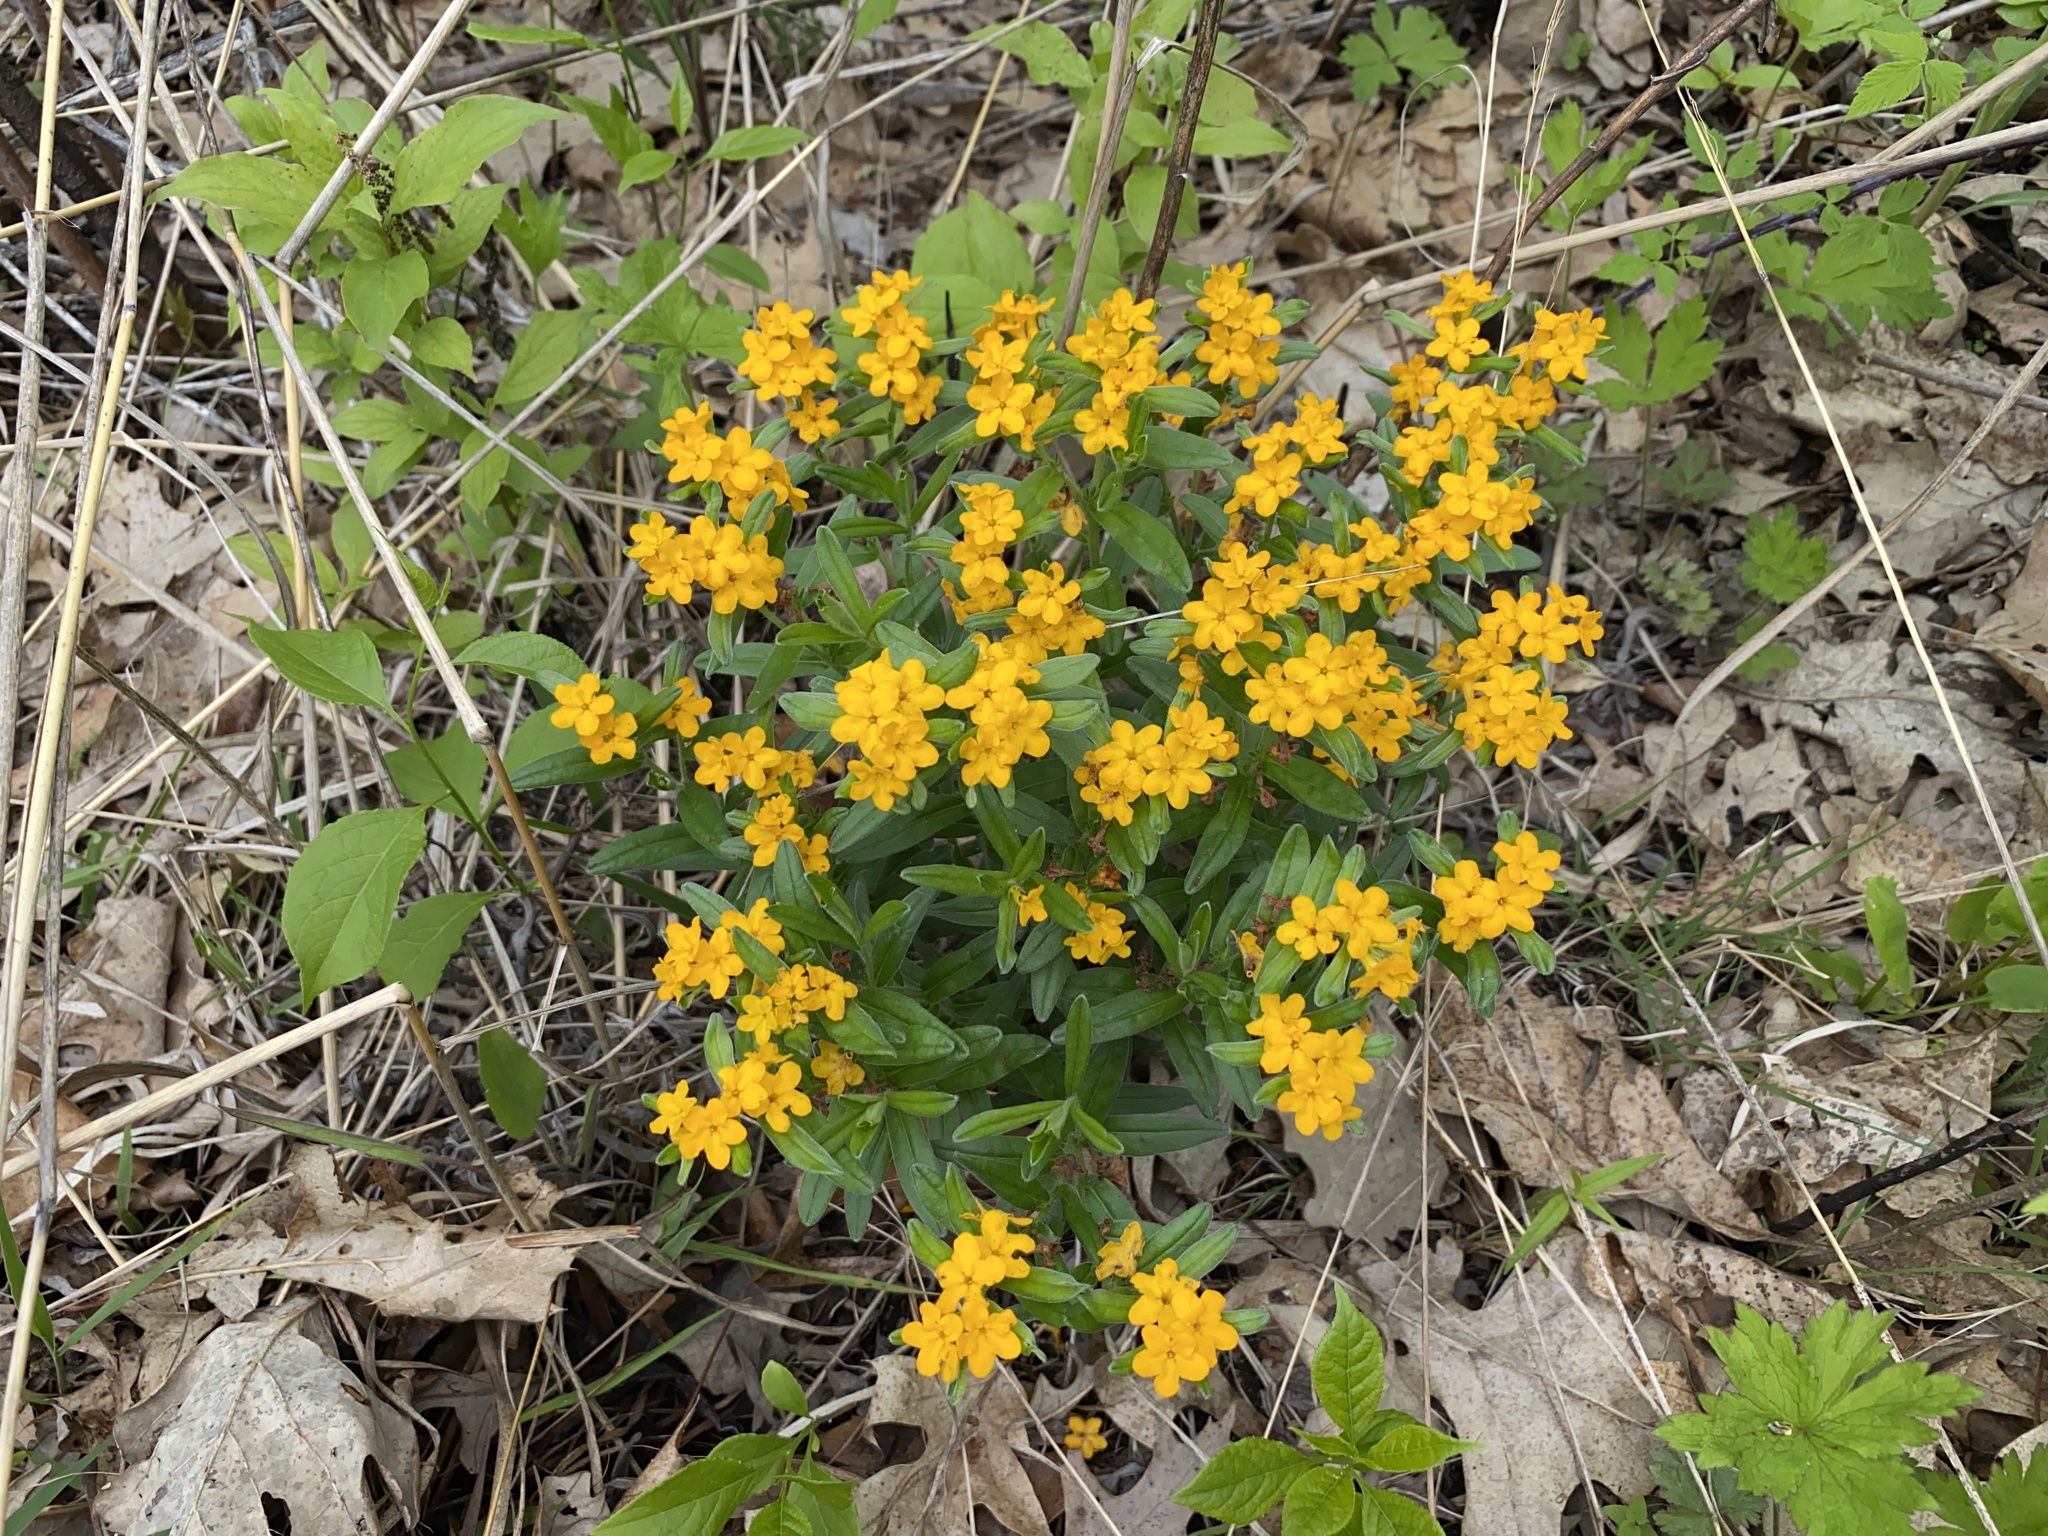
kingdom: Plantae
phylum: Tracheophyta
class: Magnoliopsida
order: Boraginales
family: Boraginaceae
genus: Lithospermum
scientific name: Lithospermum canescens
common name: Hoary puccoon
